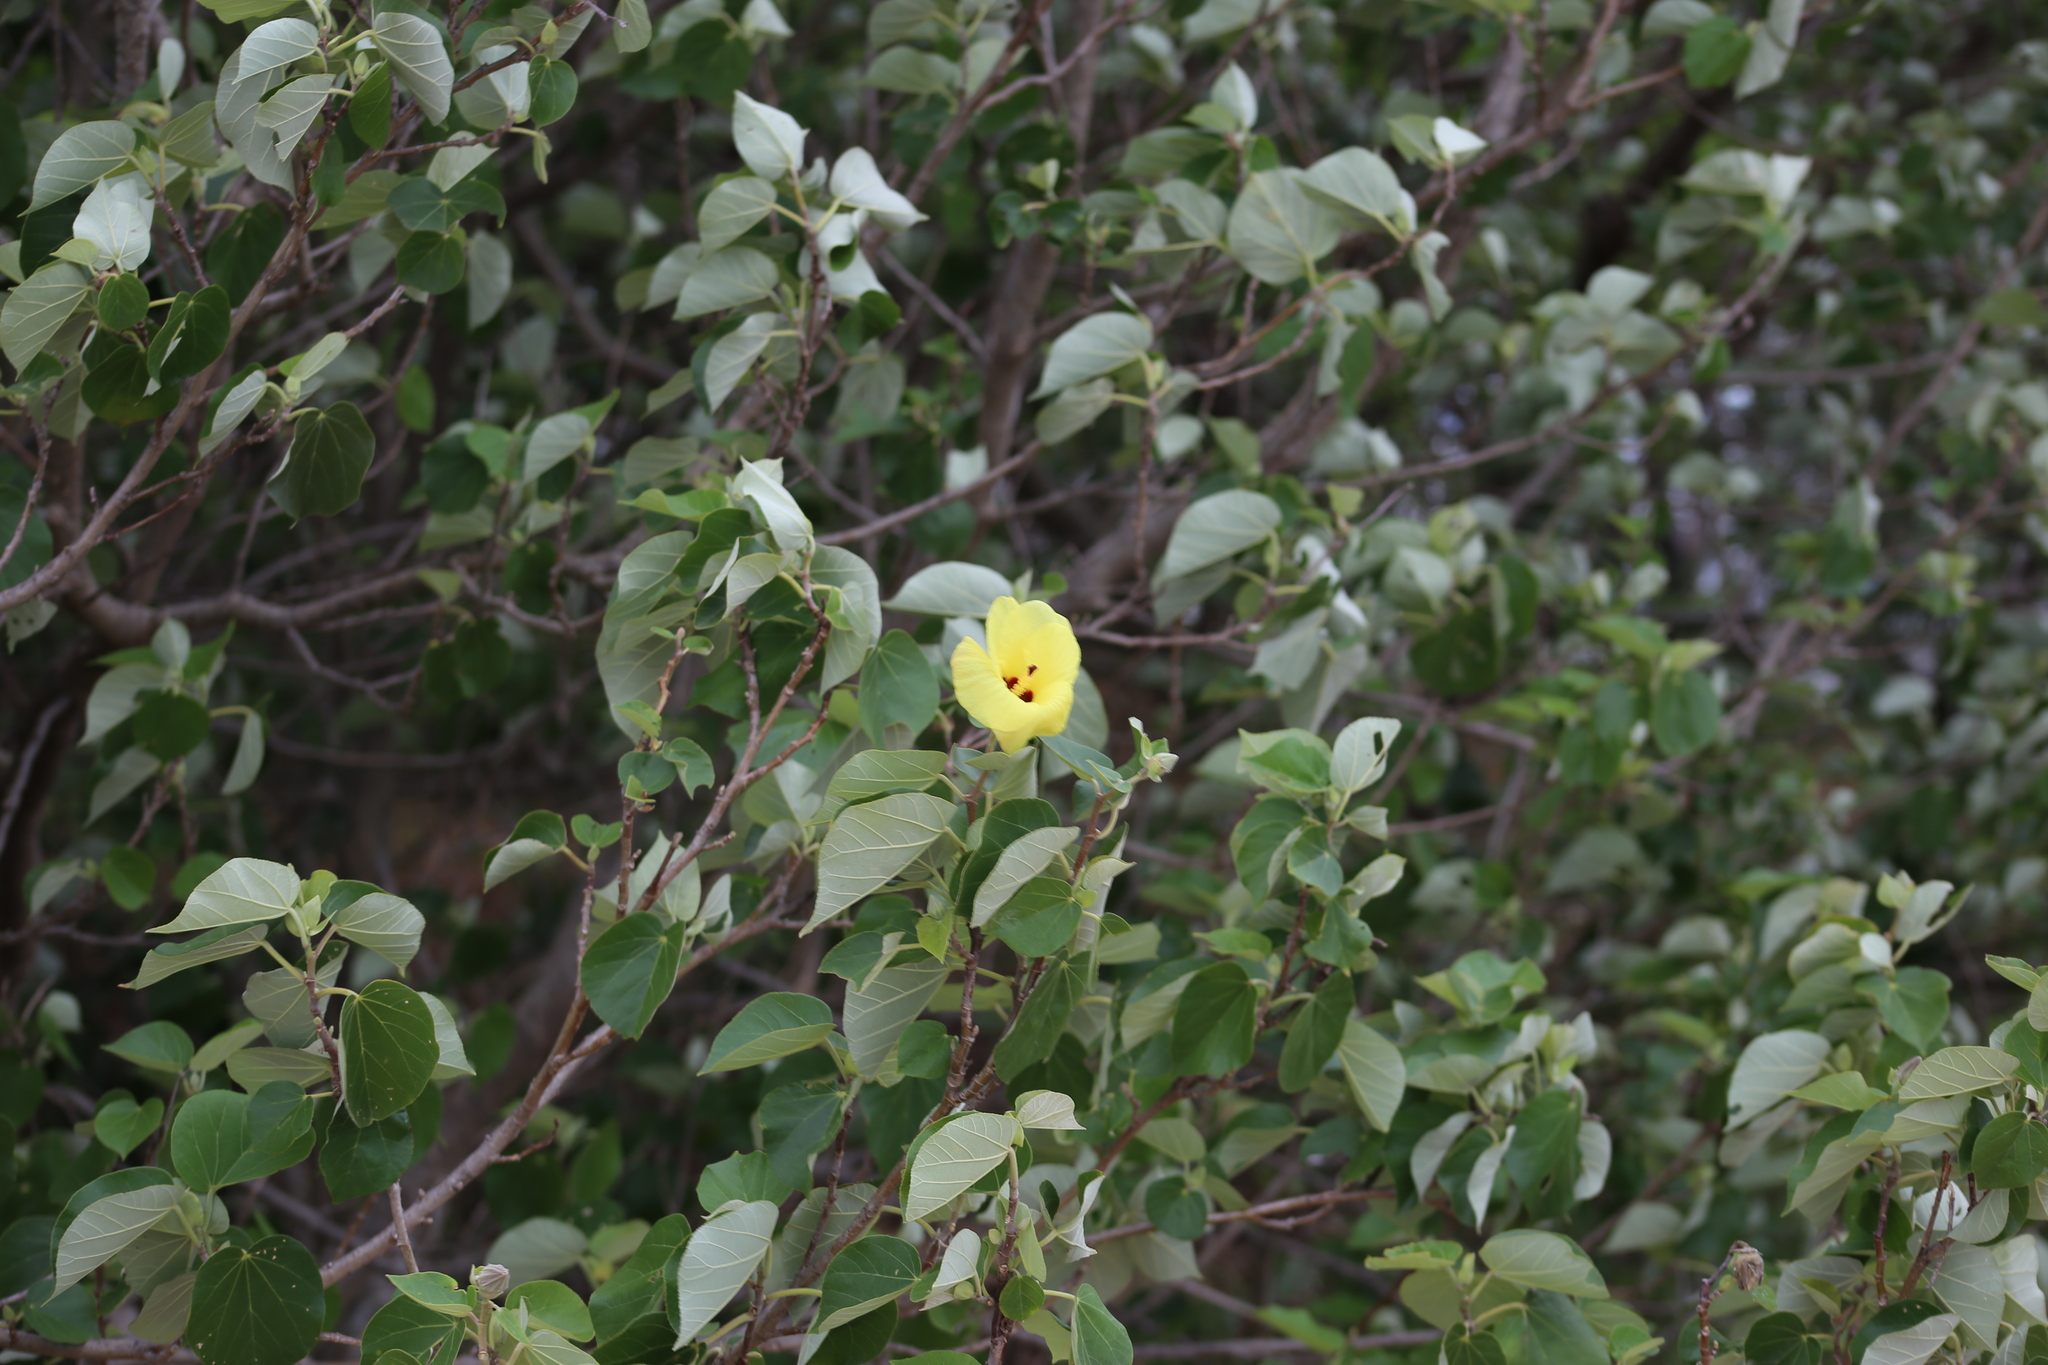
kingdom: Plantae
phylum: Tracheophyta
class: Magnoliopsida
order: Malvales
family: Malvaceae
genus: Talipariti
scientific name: Talipariti tiliaceum
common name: Sea hibiscus
